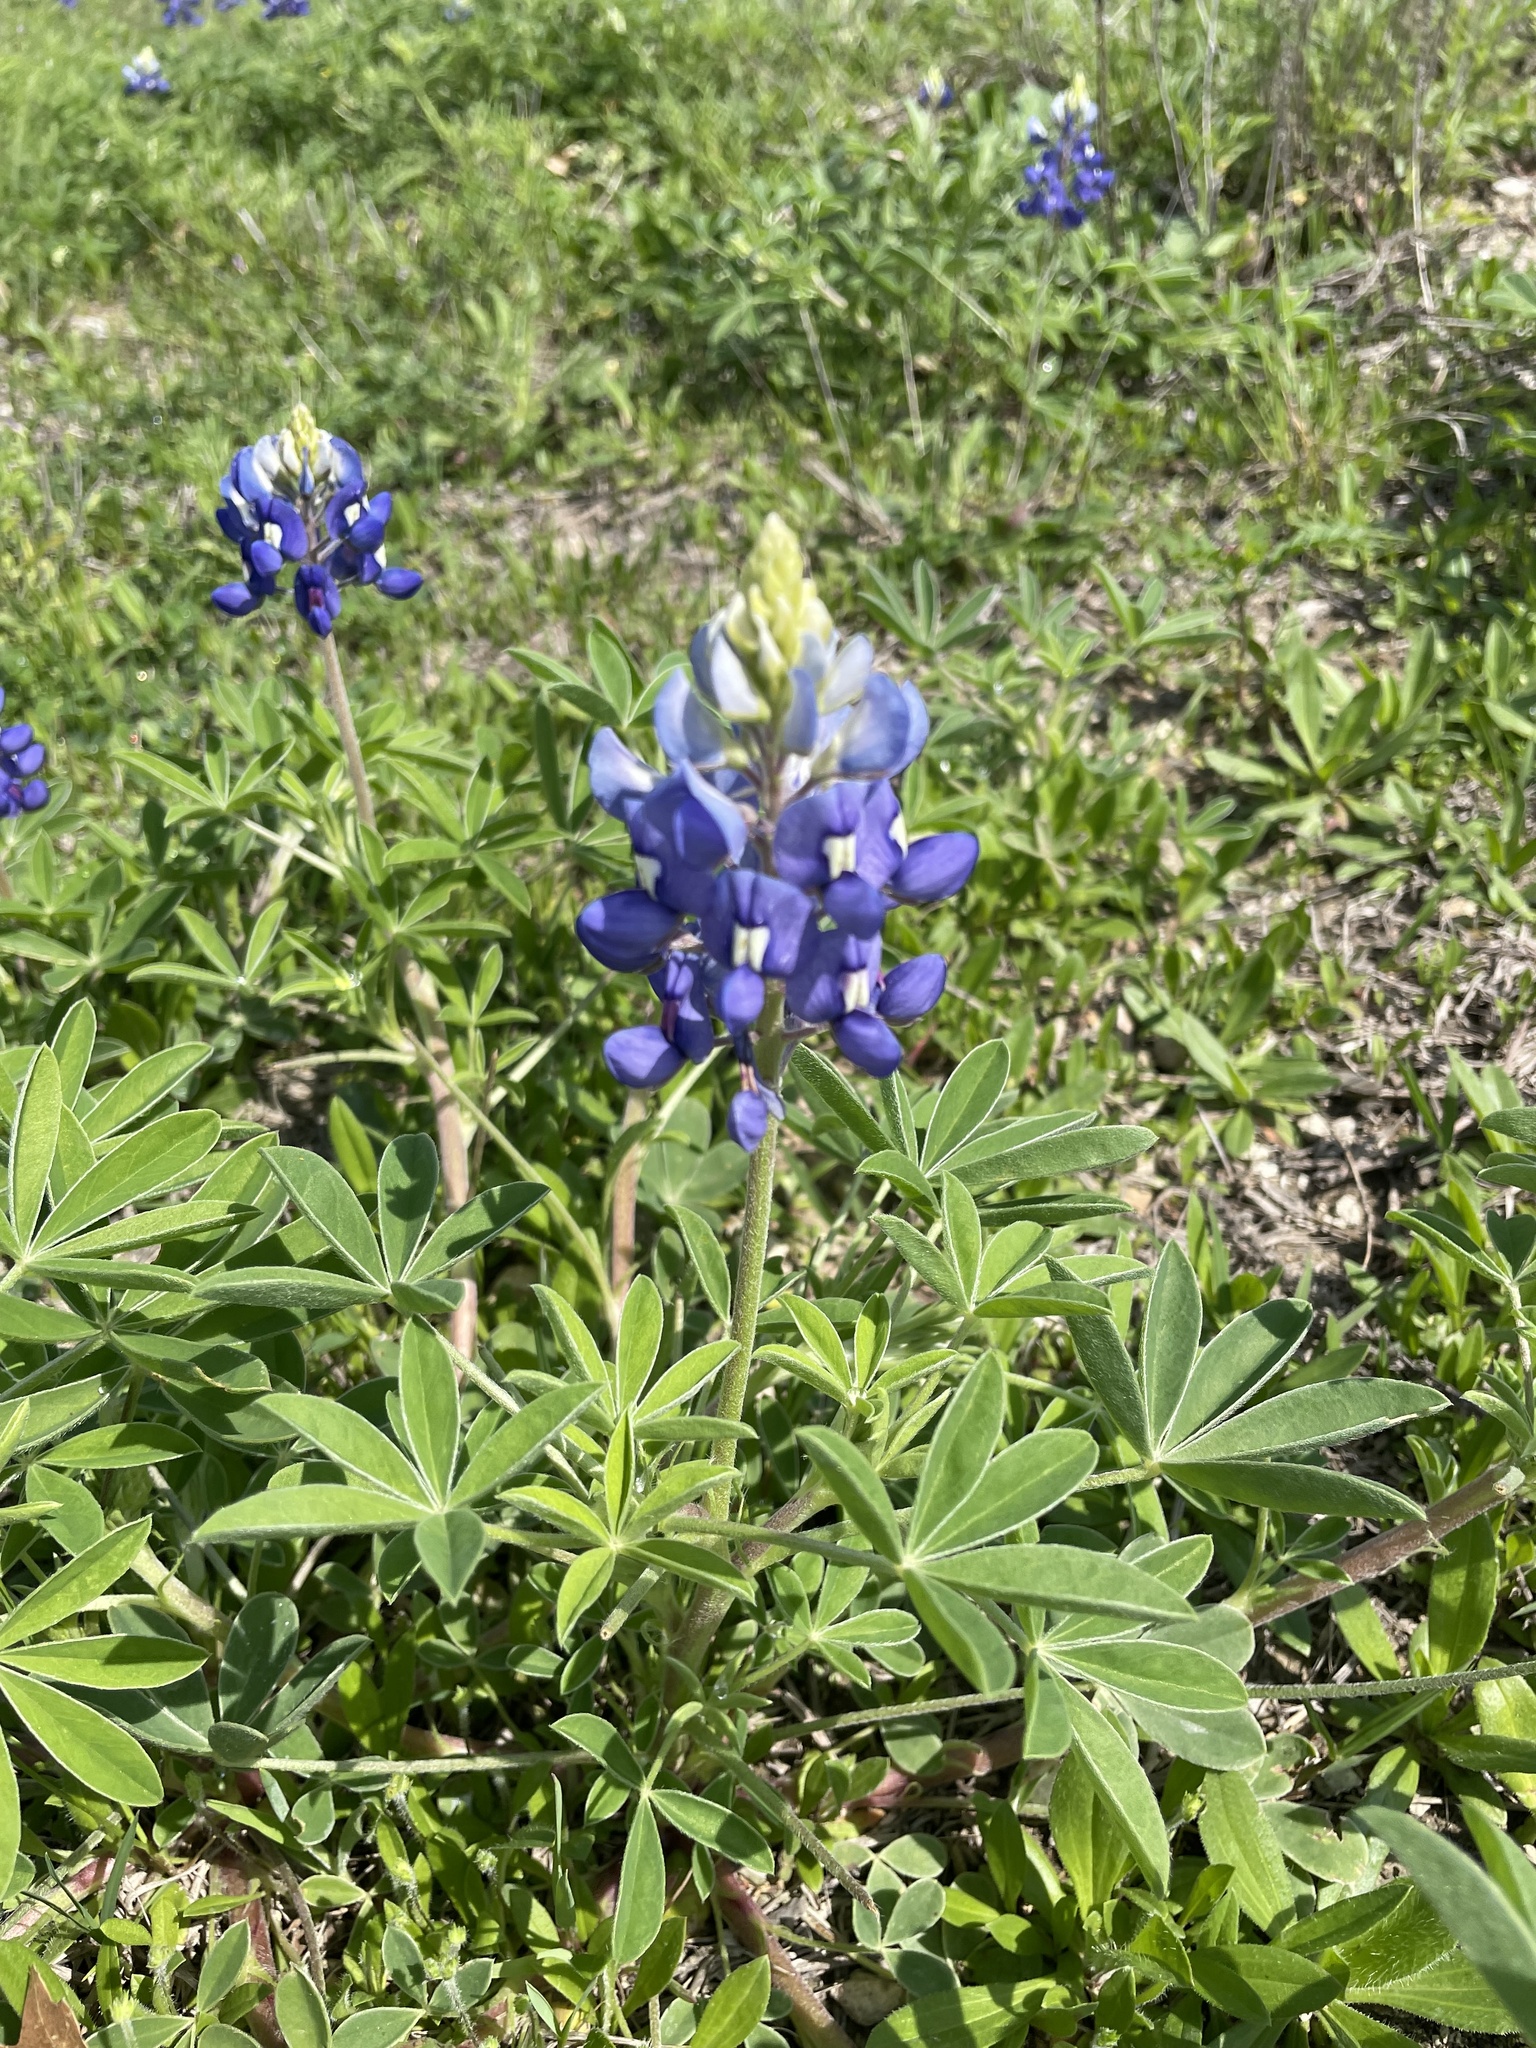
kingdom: Plantae
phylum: Tracheophyta
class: Magnoliopsida
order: Fabales
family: Fabaceae
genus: Lupinus
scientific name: Lupinus texensis
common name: Texas bluebonnet
